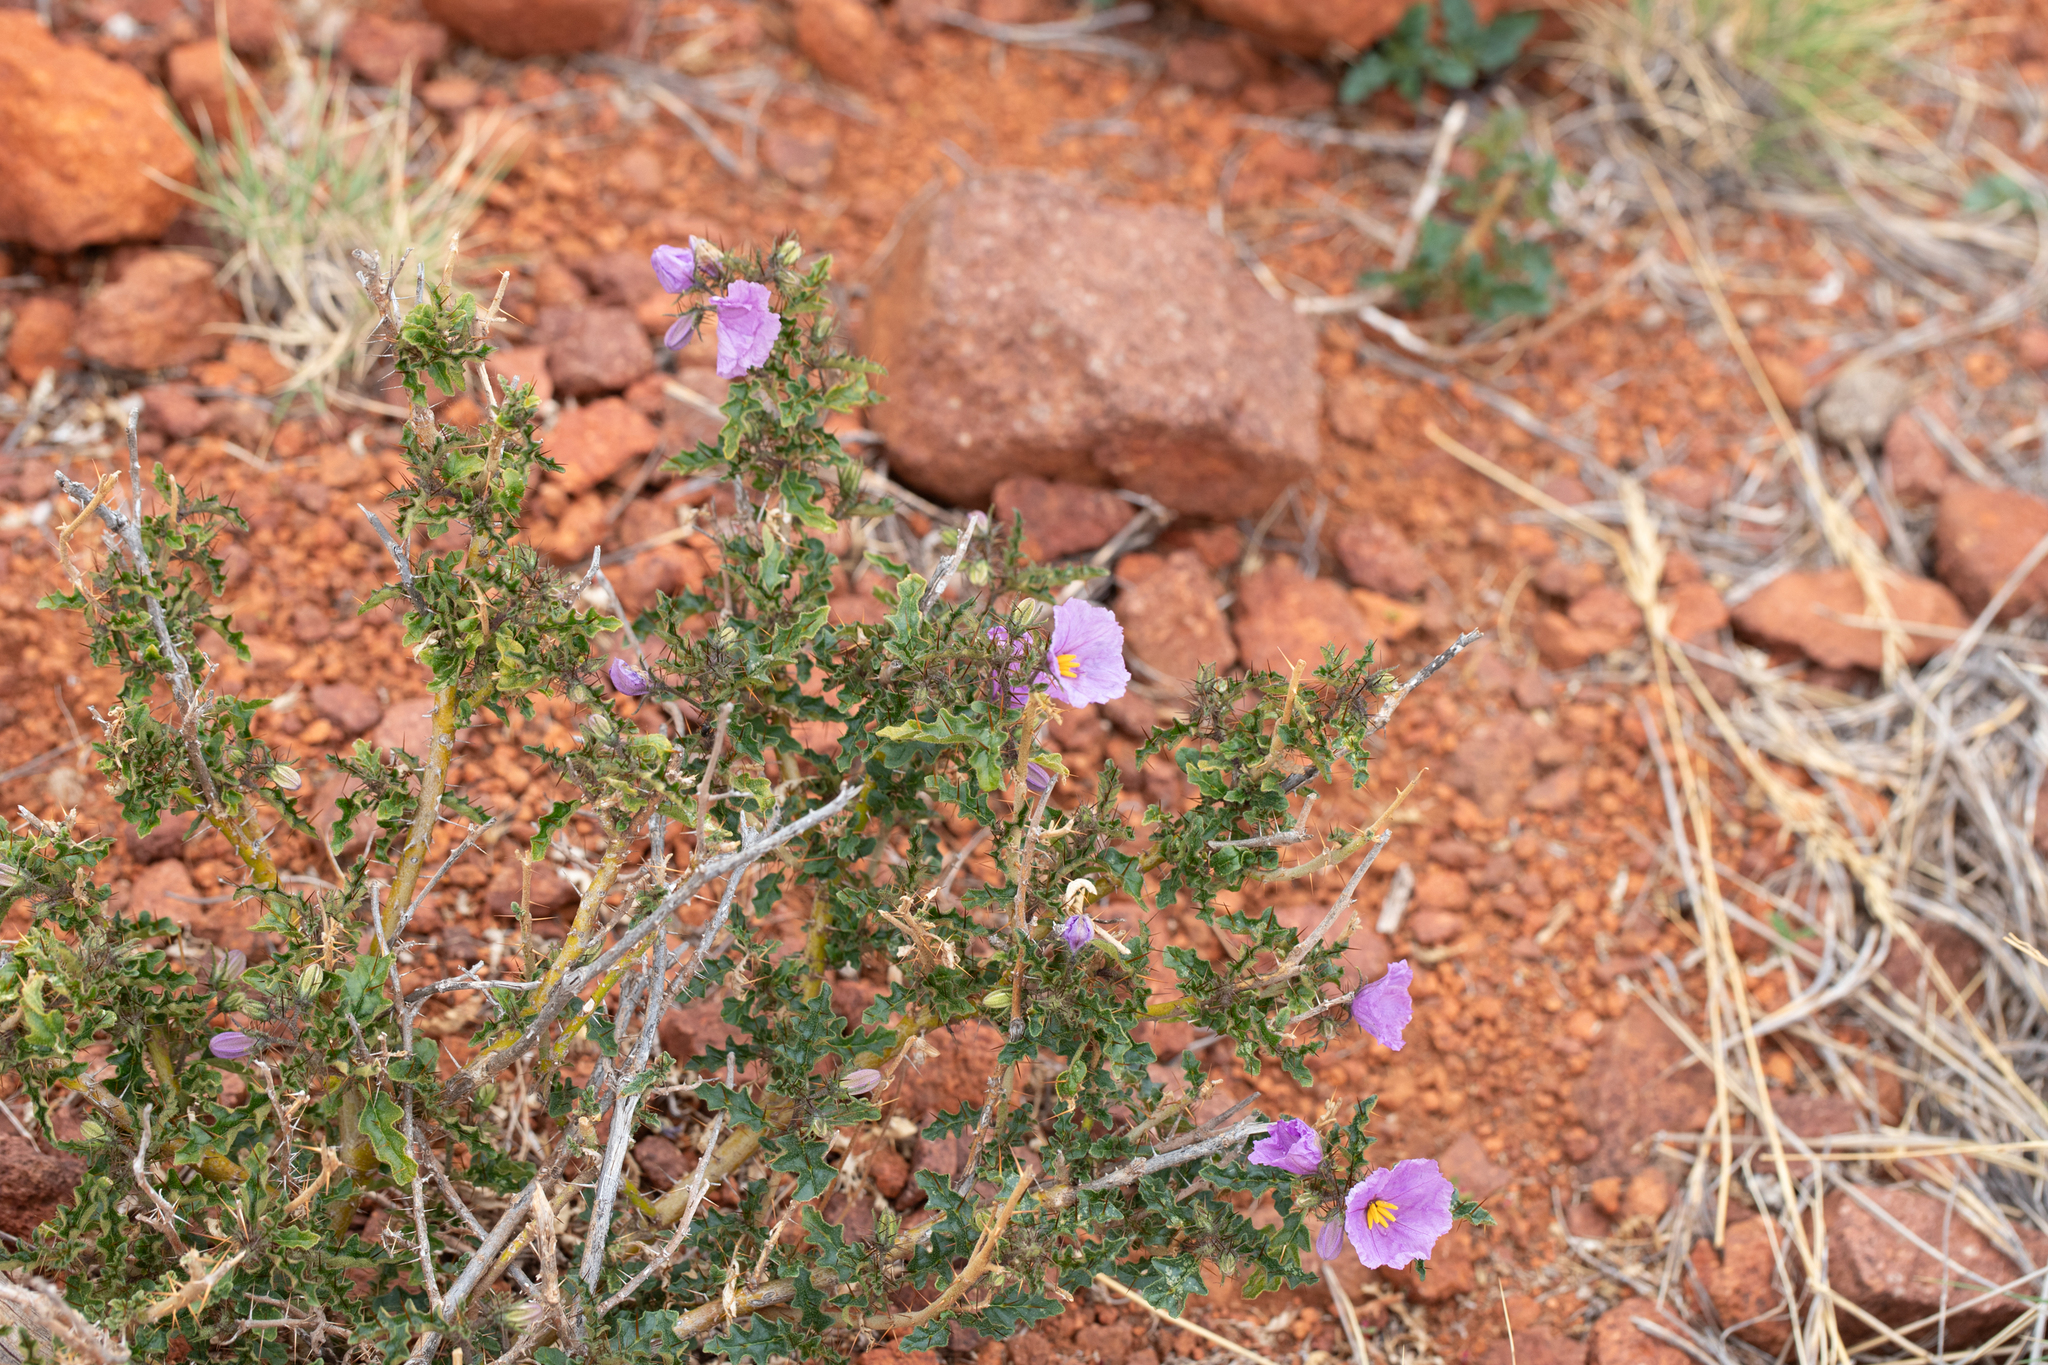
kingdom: Plantae
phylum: Tracheophyta
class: Magnoliopsida
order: Solanales
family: Solanaceae
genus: Solanum
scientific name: Solanum petrophilum
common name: Rock nightshade
